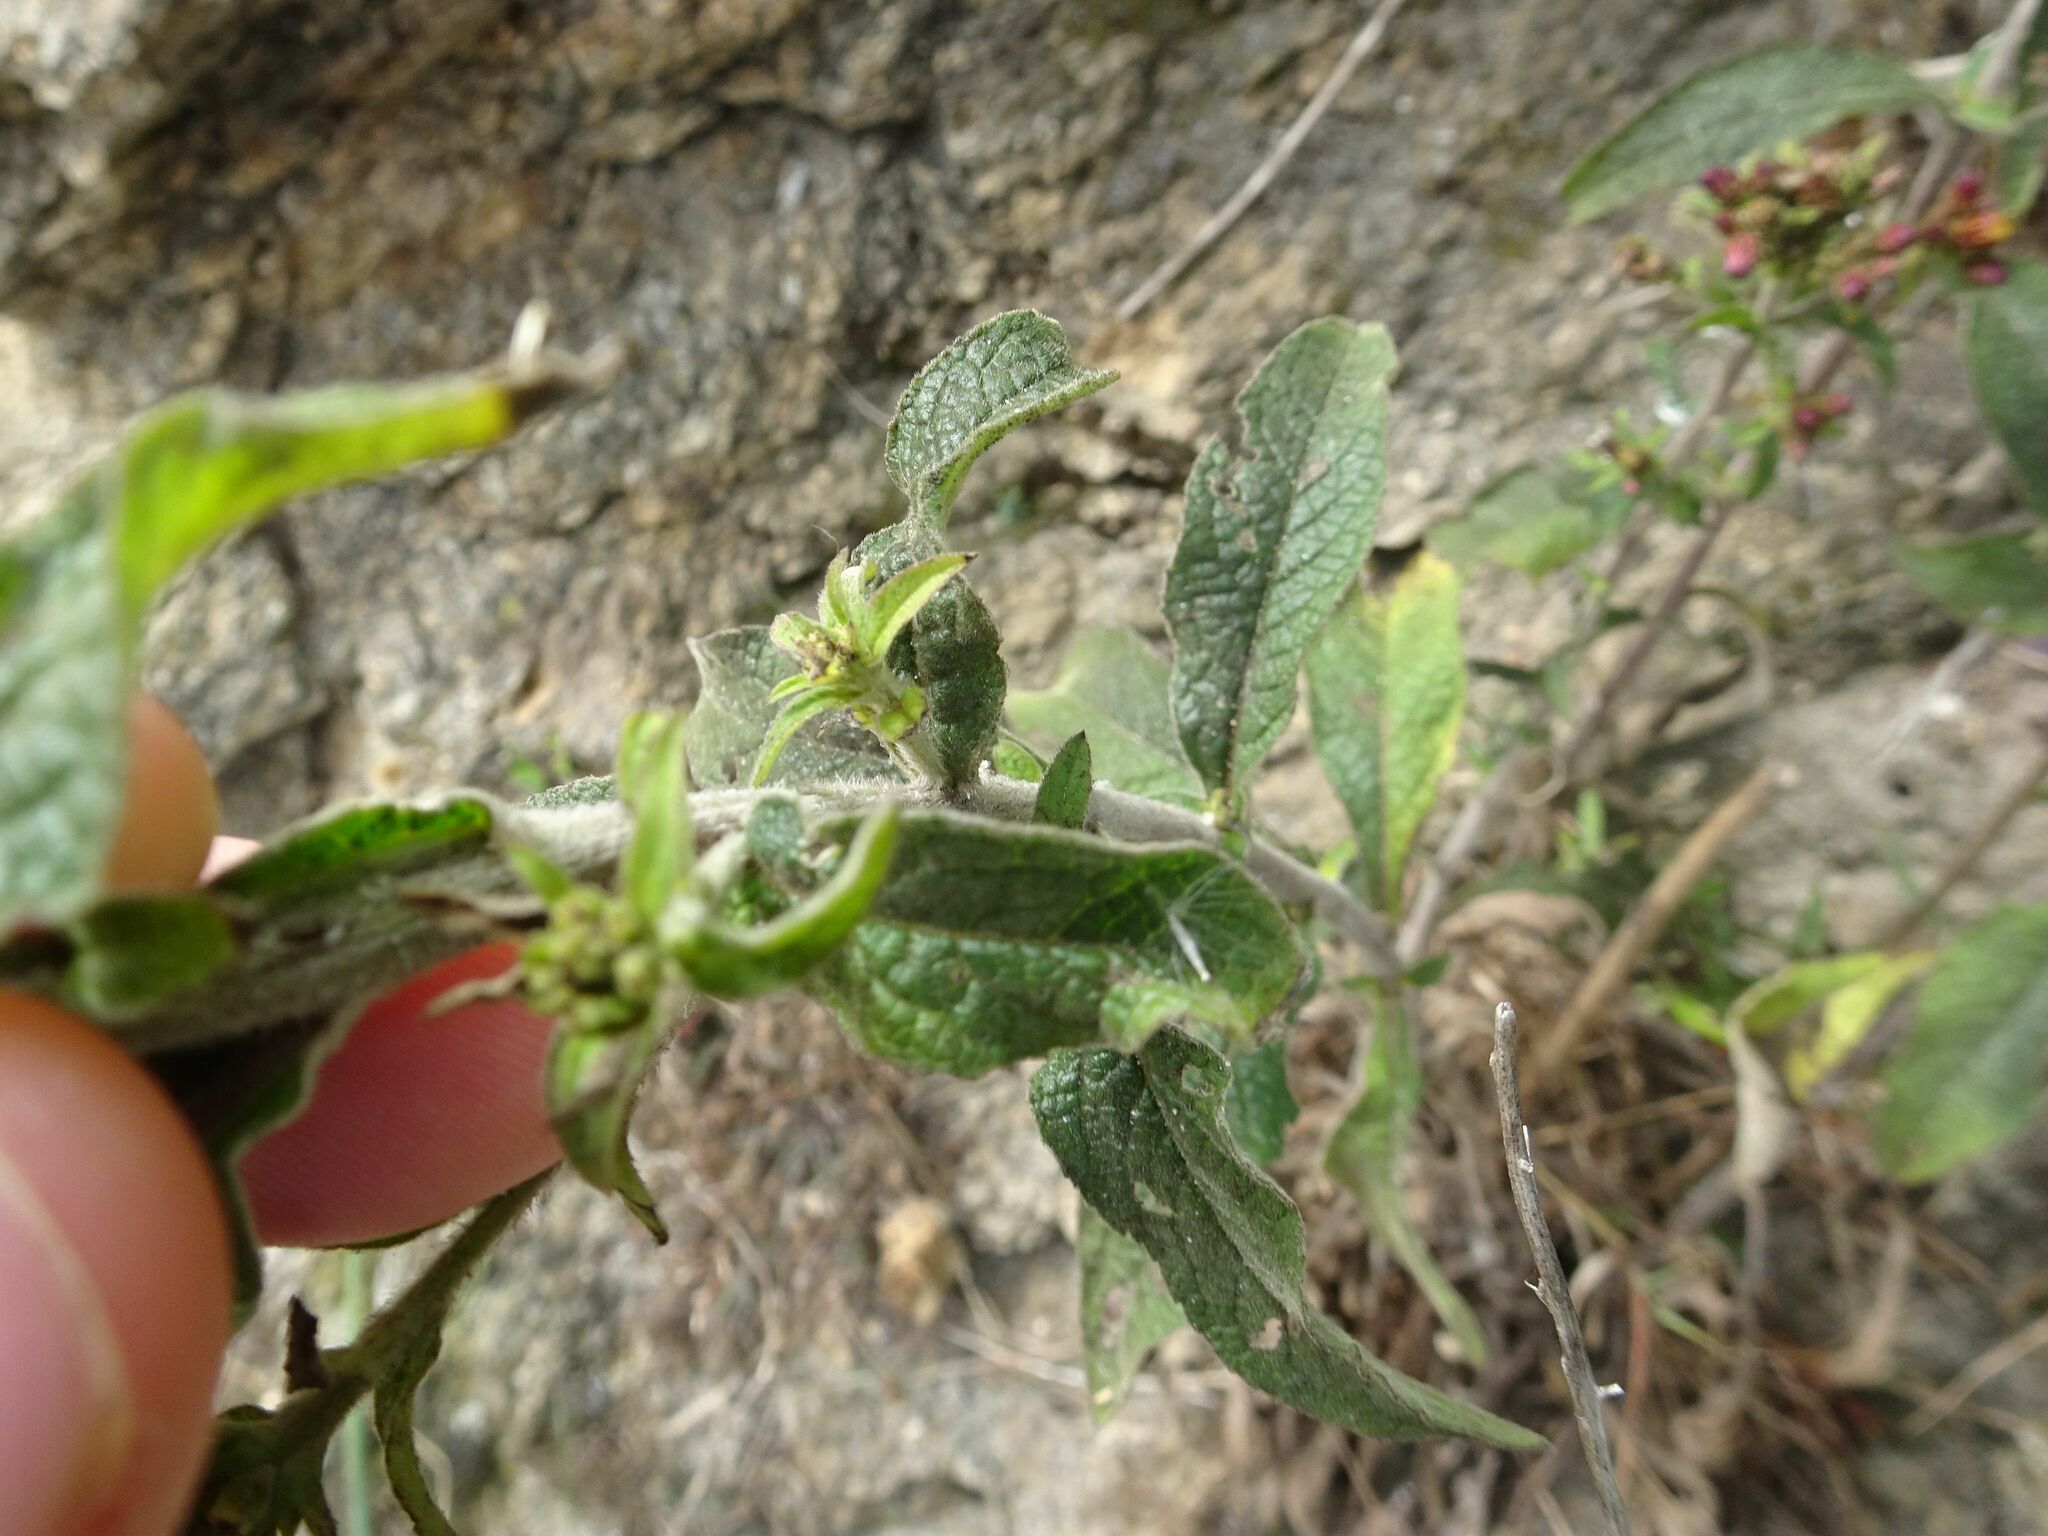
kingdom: Plantae
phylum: Tracheophyta
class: Magnoliopsida
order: Asterales
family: Asteraceae
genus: Pentanema
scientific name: Pentanema squarrosum
